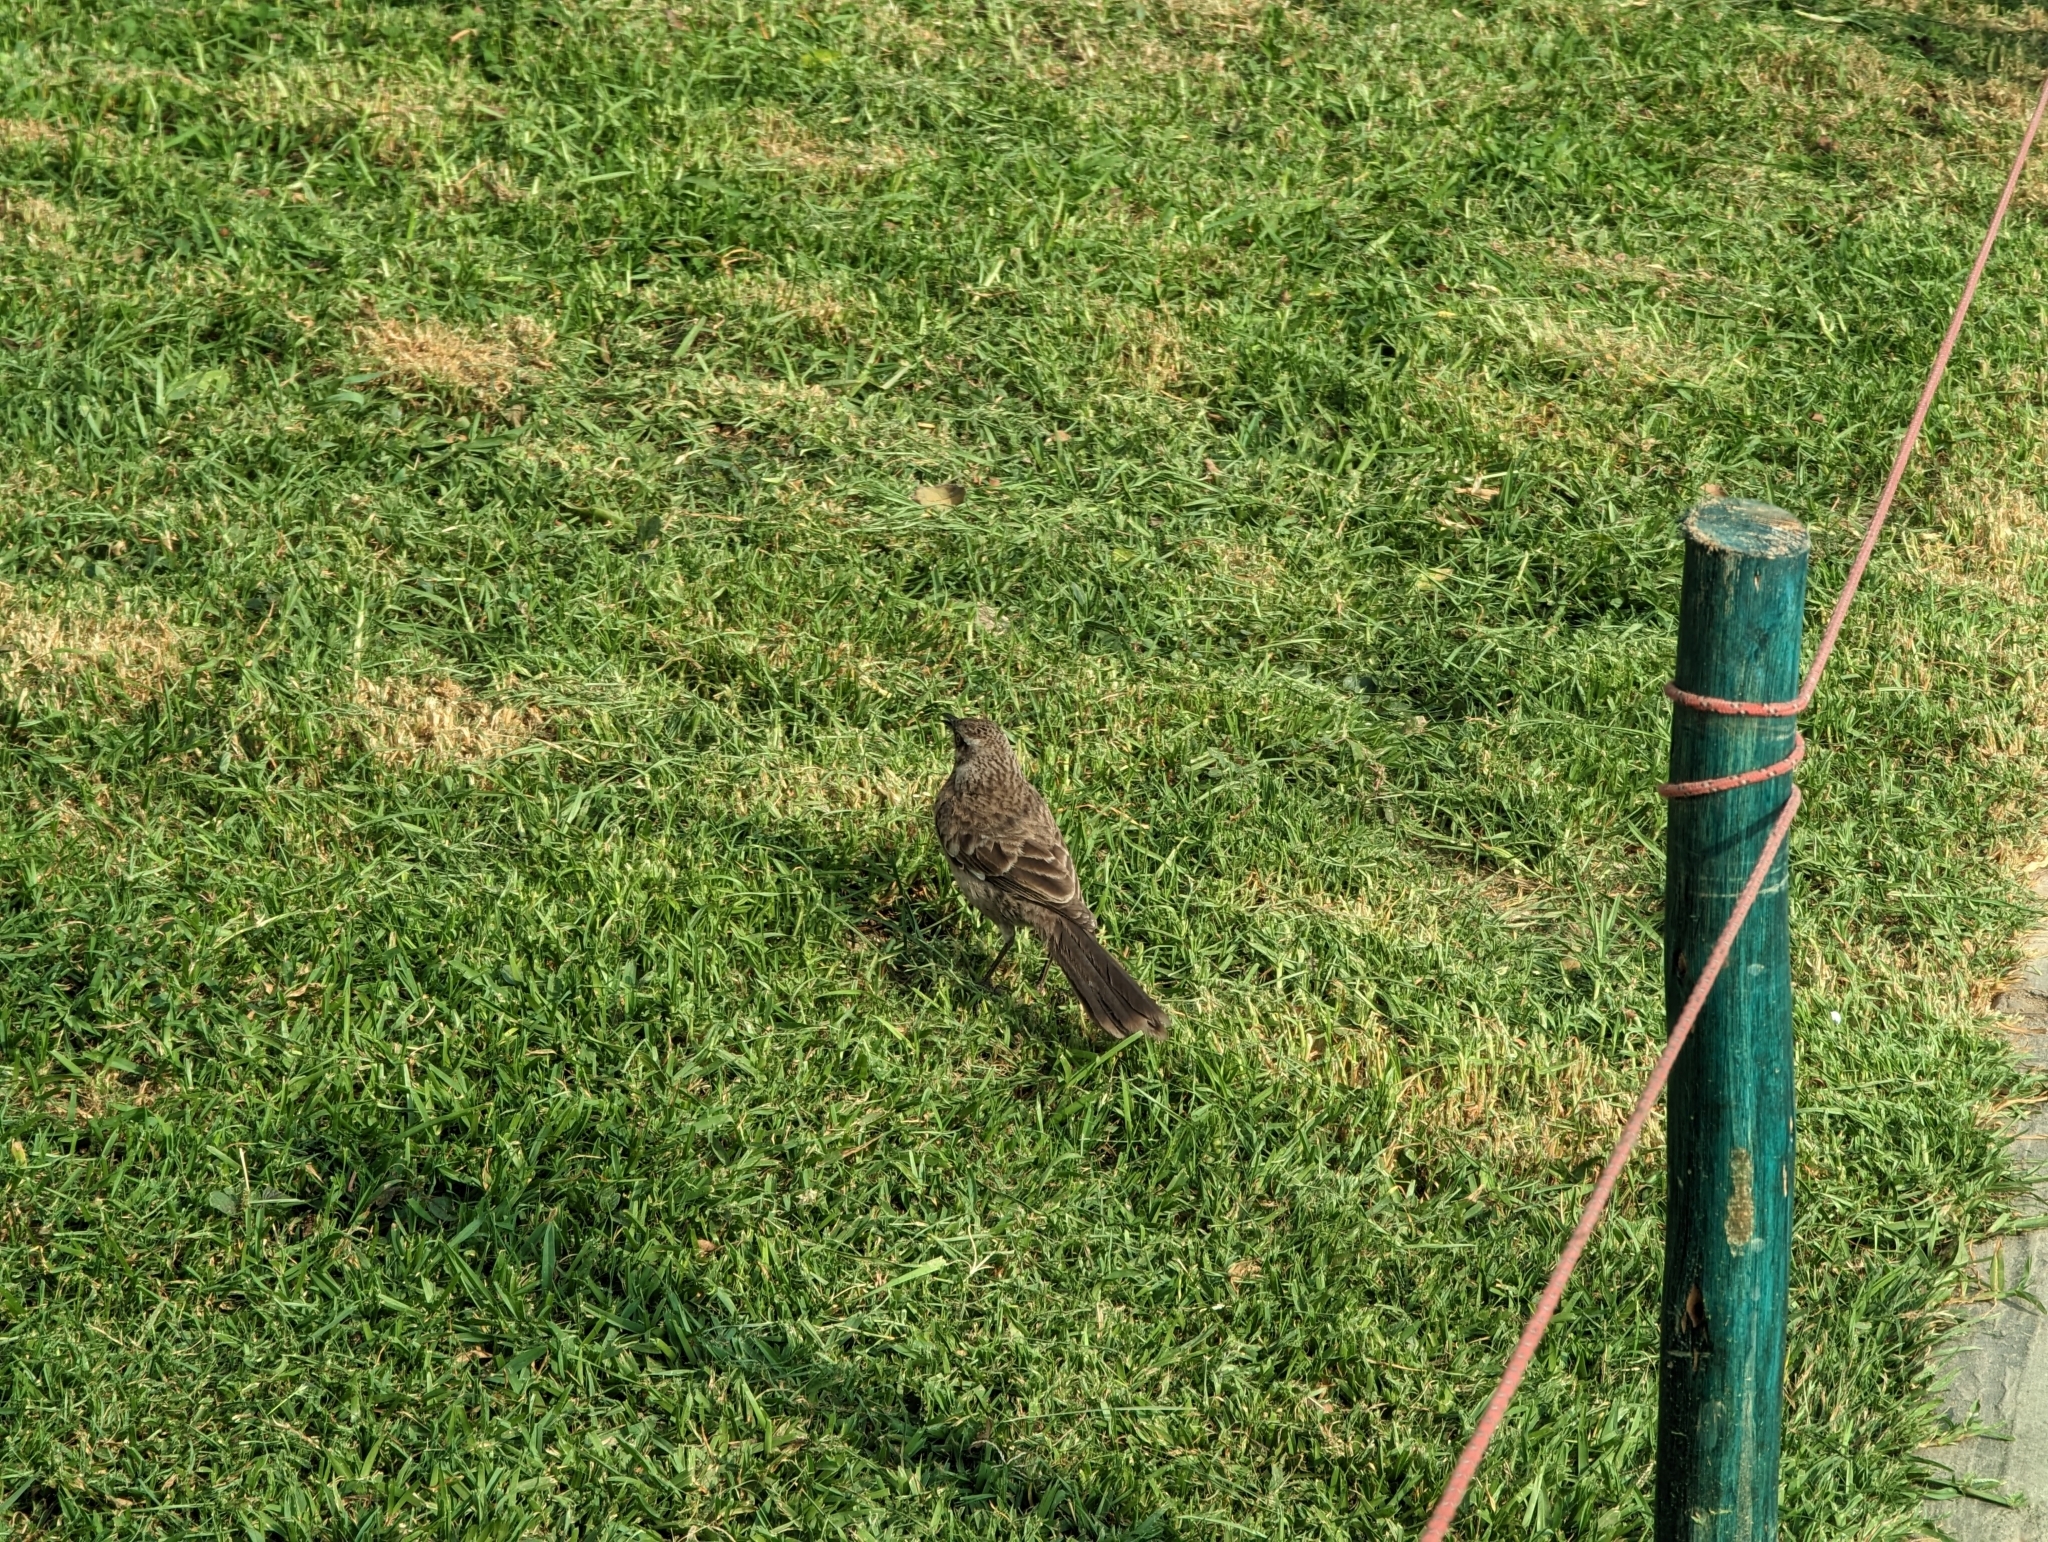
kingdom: Animalia
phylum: Chordata
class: Aves
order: Passeriformes
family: Mimidae
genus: Mimus
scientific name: Mimus longicaudatus
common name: Long-tailed mockingbird
